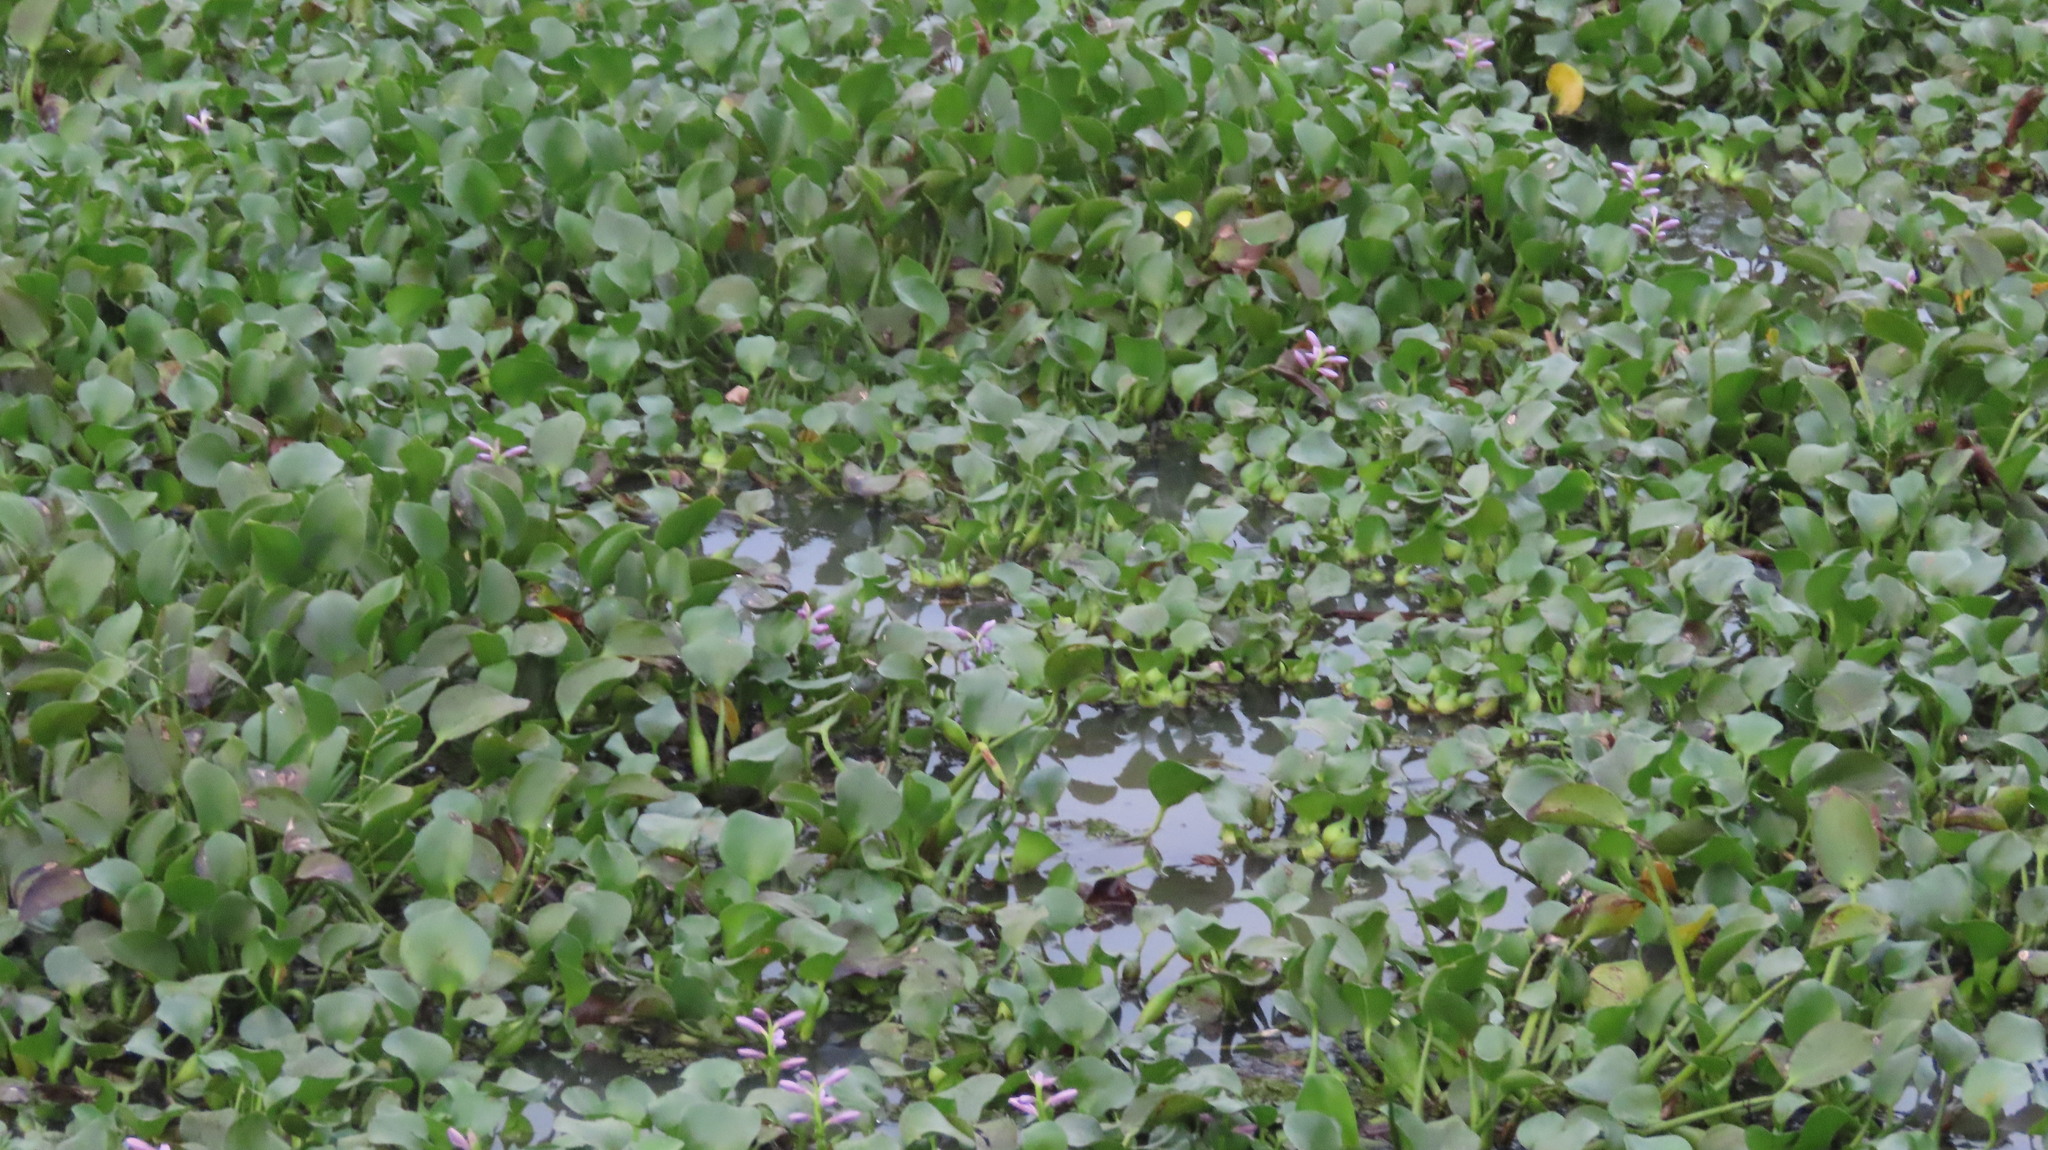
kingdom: Plantae
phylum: Tracheophyta
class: Liliopsida
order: Commelinales
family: Pontederiaceae
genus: Pontederia
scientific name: Pontederia crassipes
